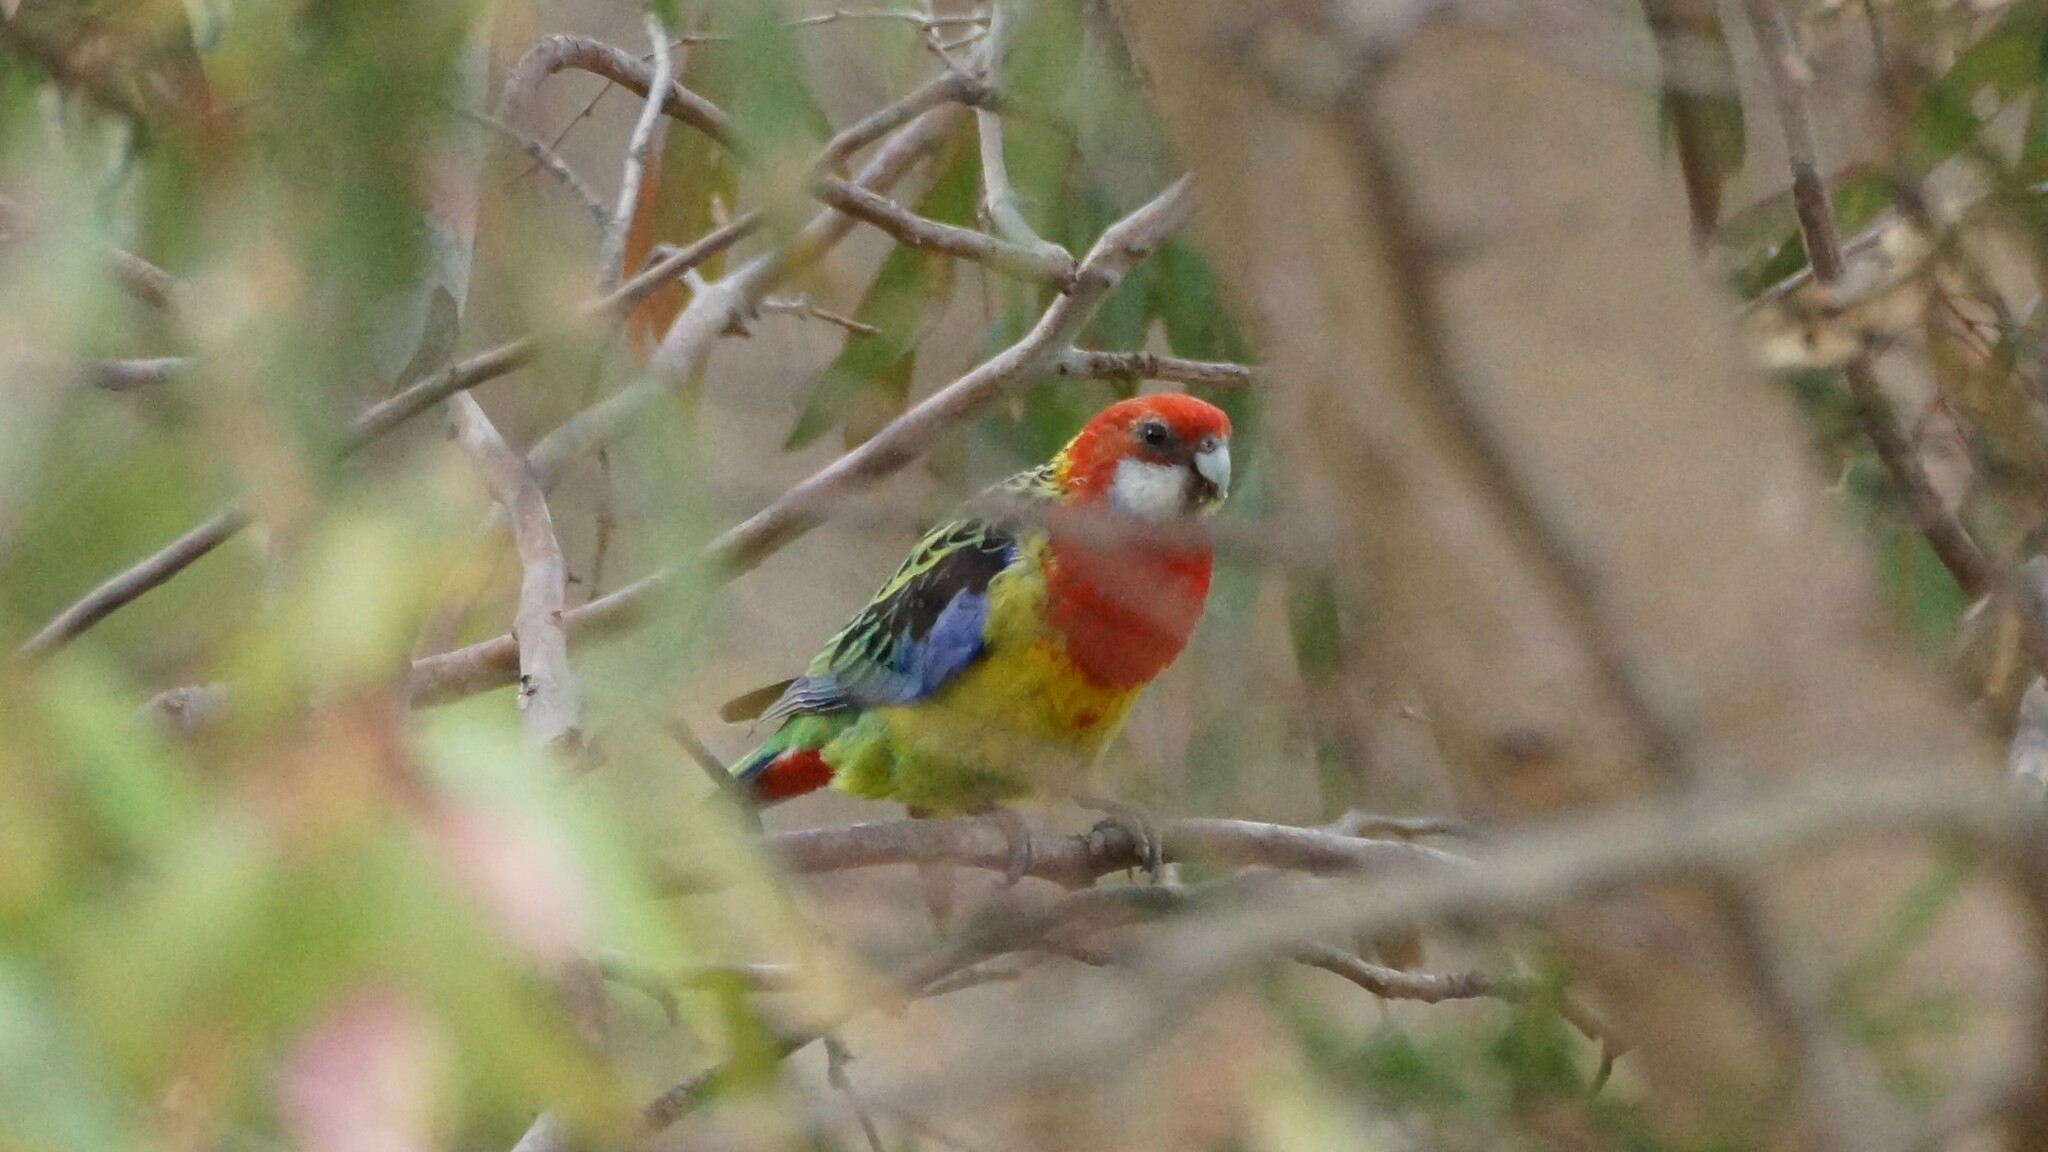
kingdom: Animalia
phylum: Chordata
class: Aves
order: Psittaciformes
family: Psittacidae
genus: Platycercus
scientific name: Platycercus eximius
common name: Eastern rosella
